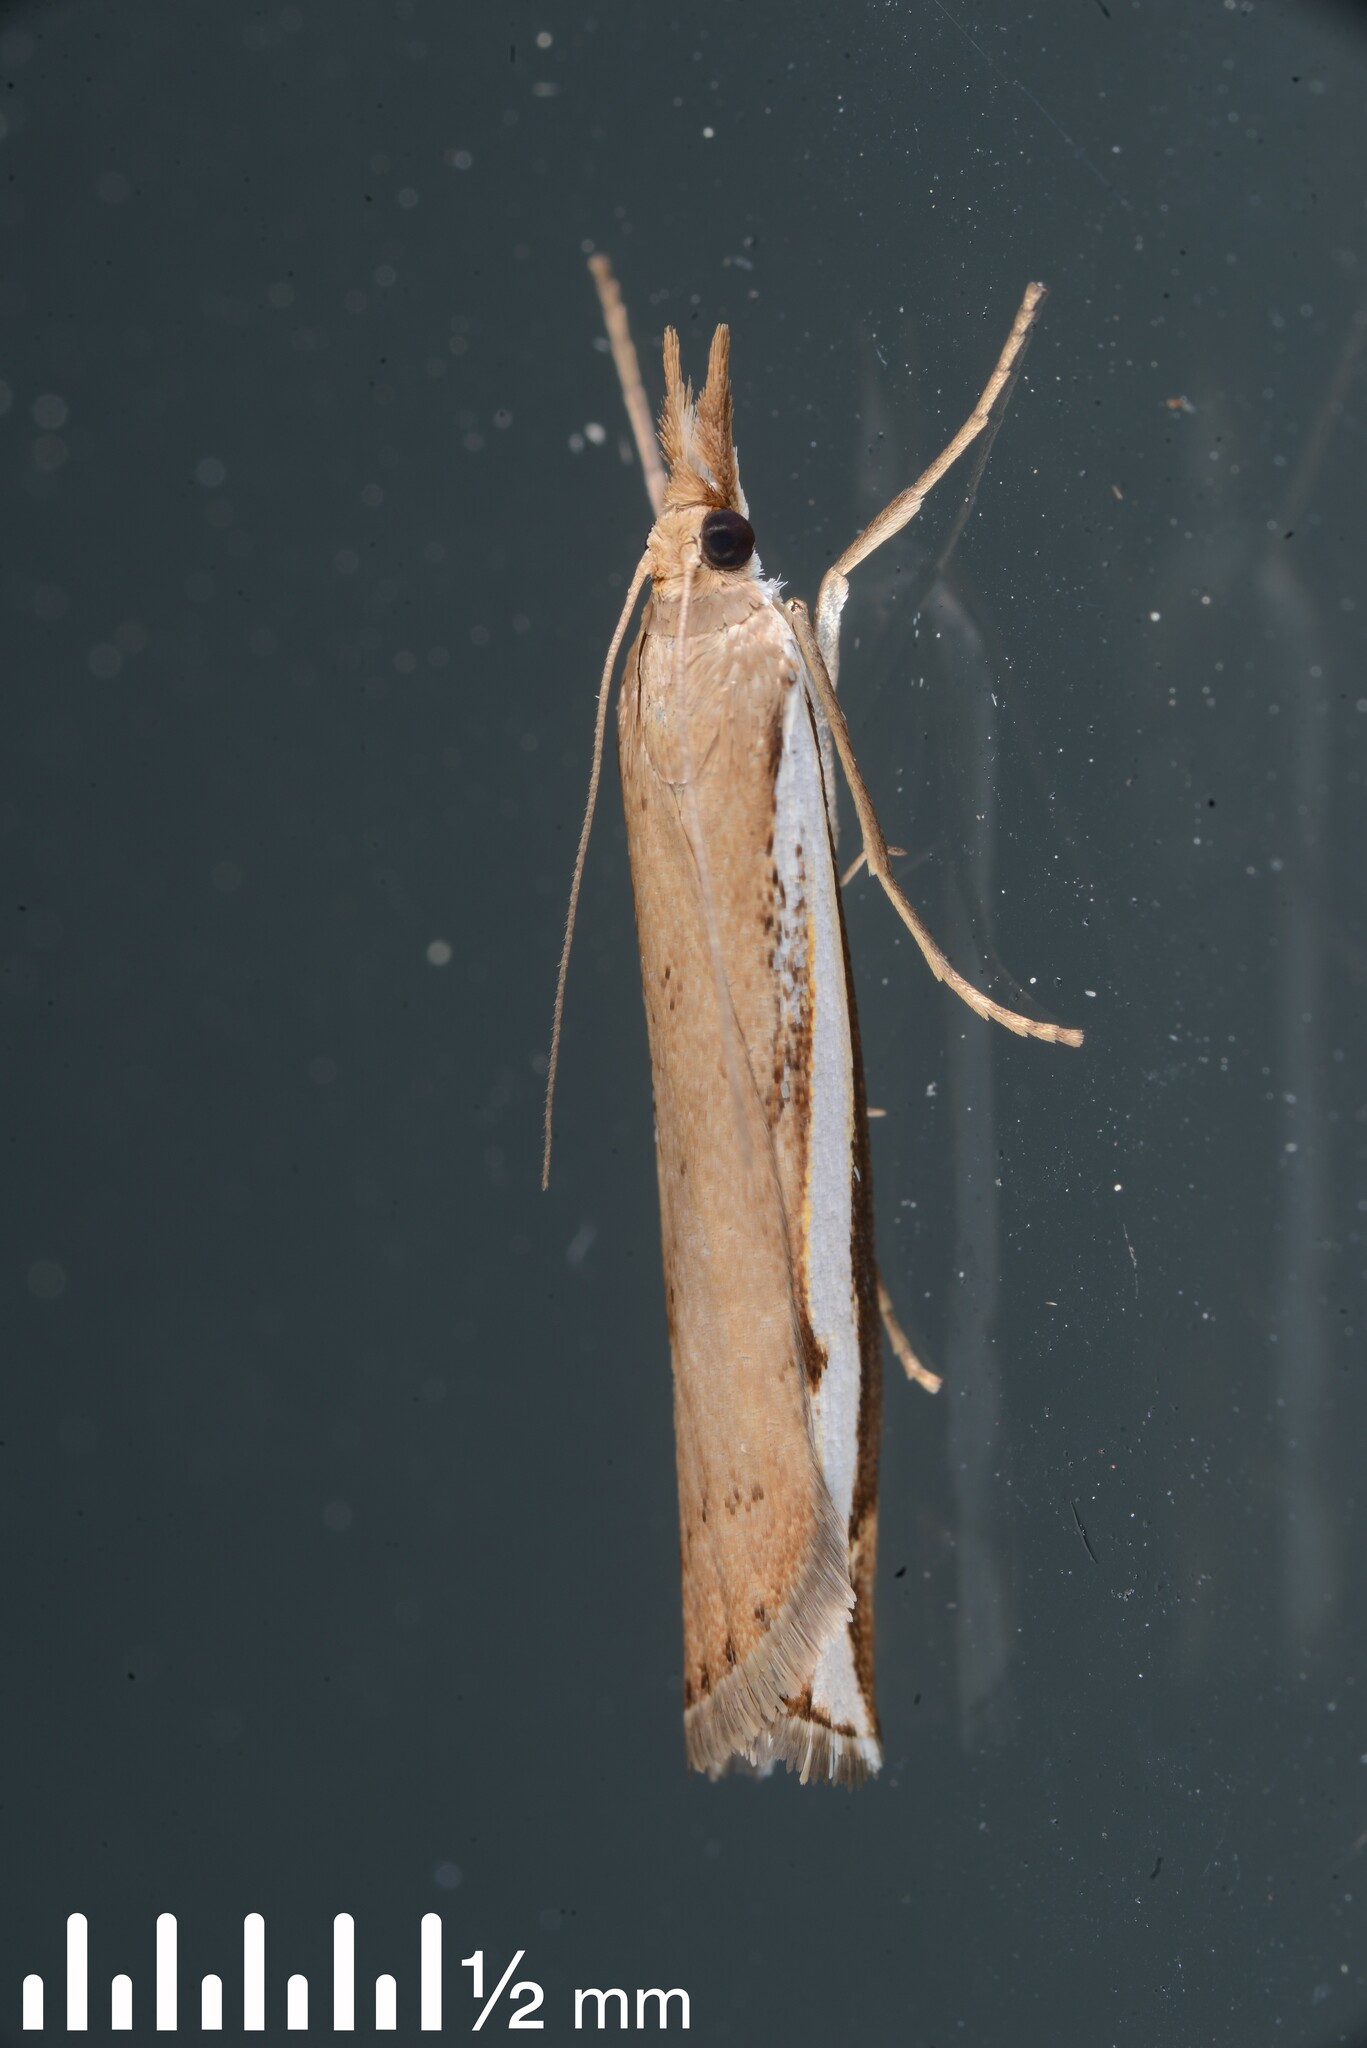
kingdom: Animalia
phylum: Arthropoda
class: Insecta
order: Lepidoptera
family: Crambidae
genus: Orocrambus
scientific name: Orocrambus flexuosellus
